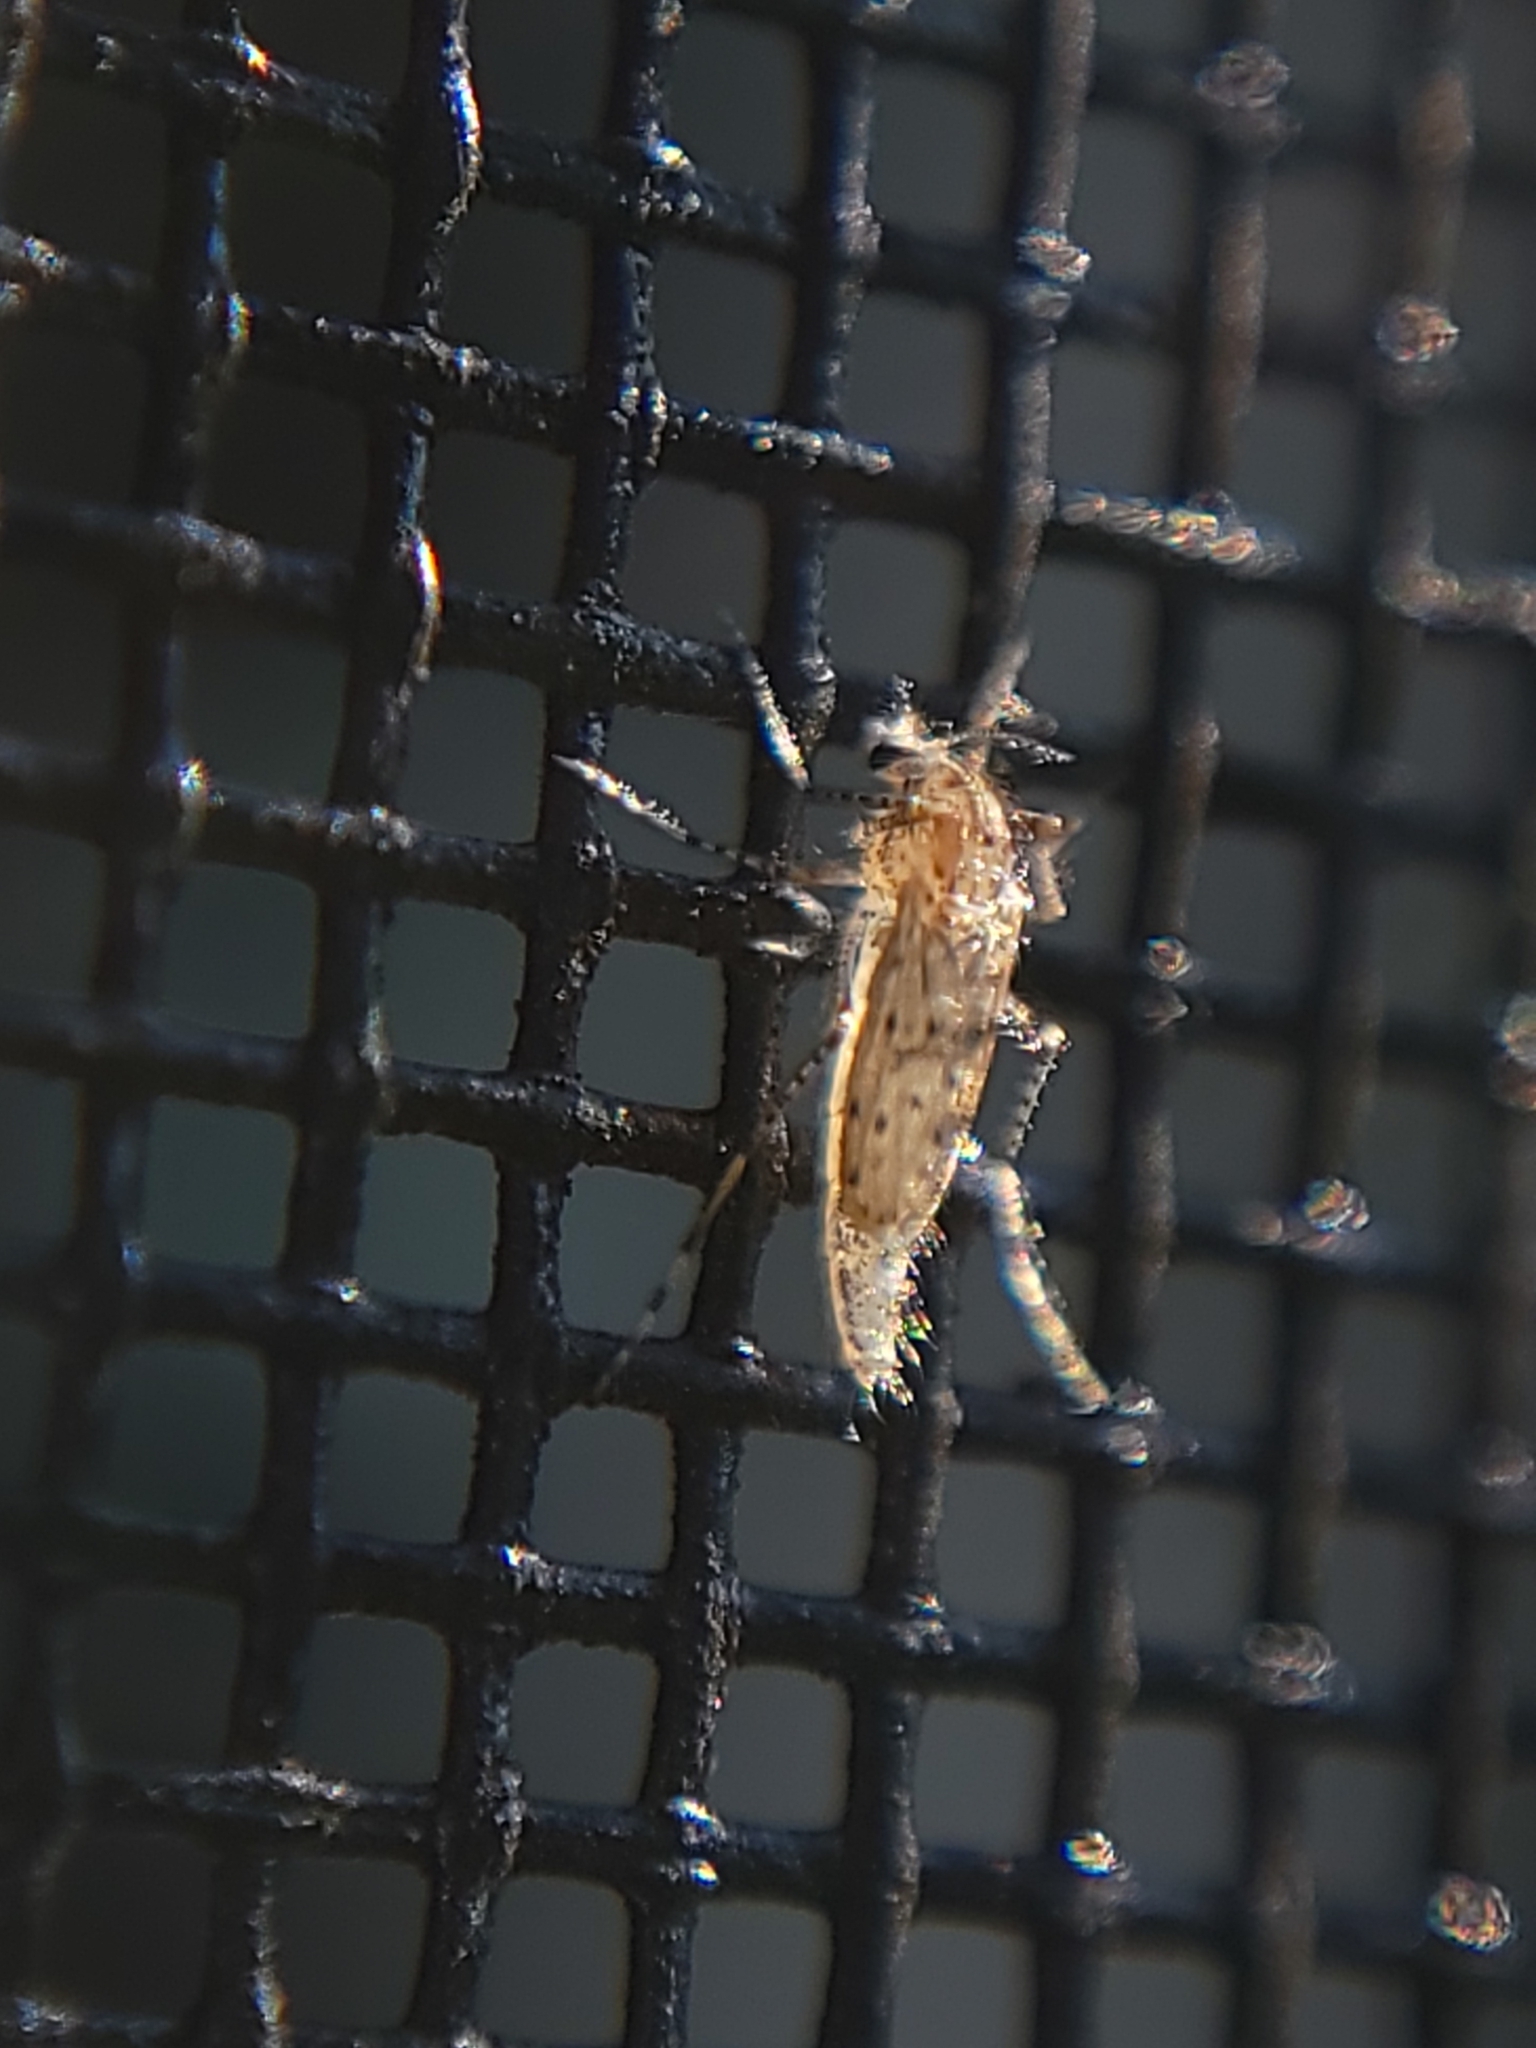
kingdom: Animalia
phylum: Arthropoda
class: Insecta
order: Diptera
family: Chaoboridae
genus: Chaoborus
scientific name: Chaoborus punctipennis
